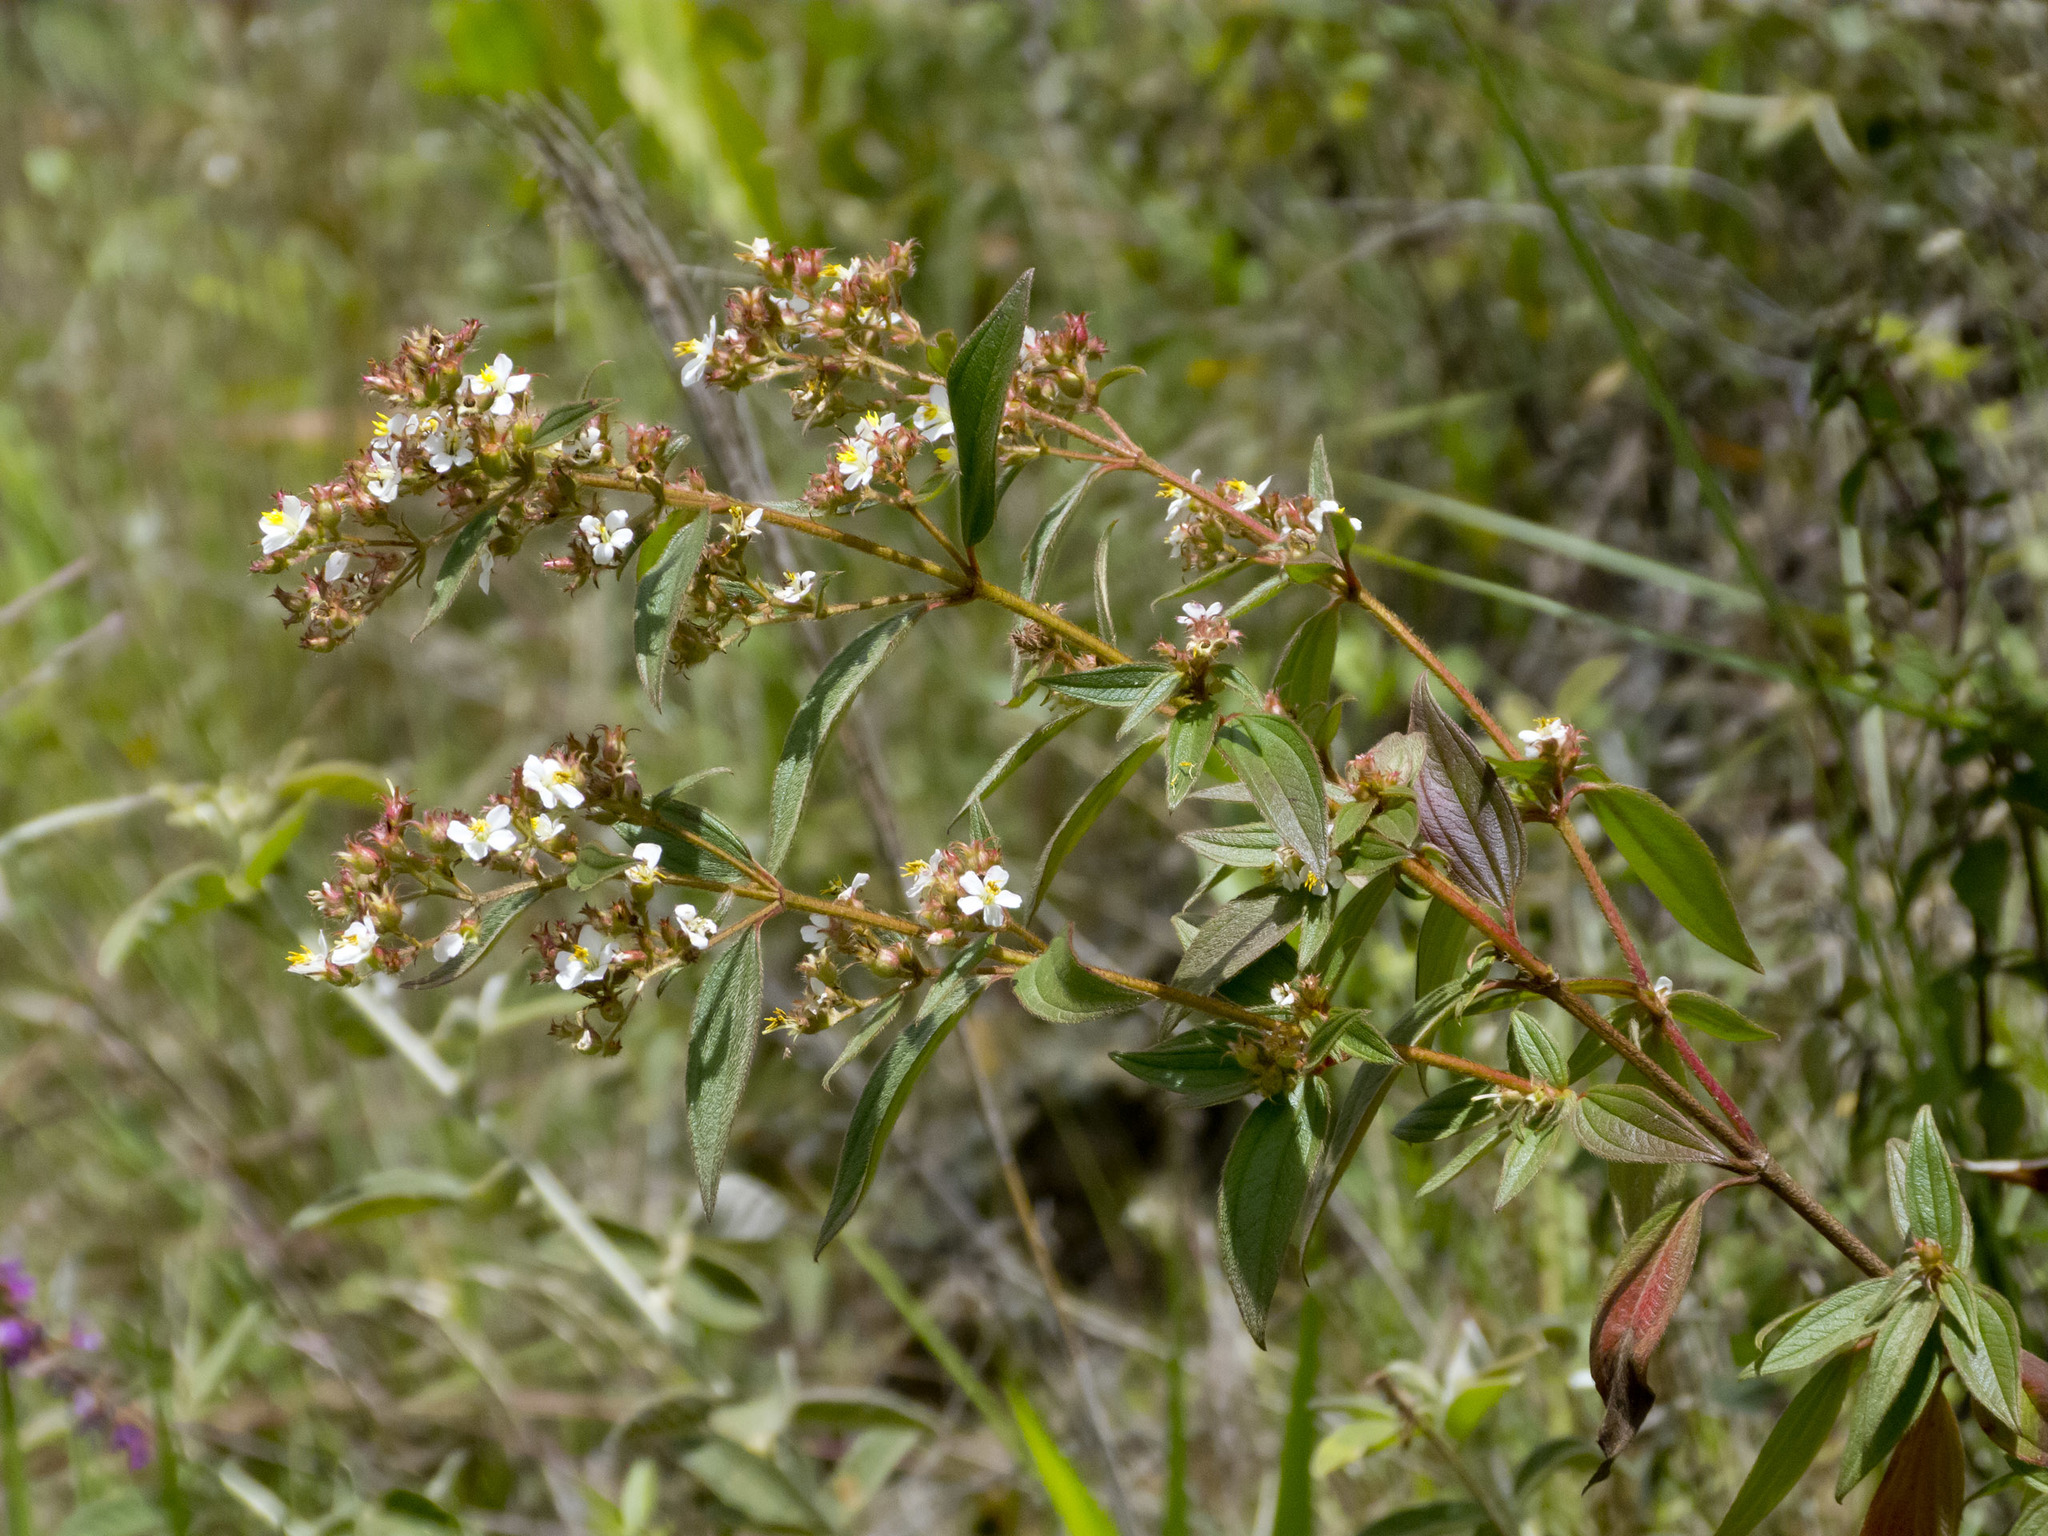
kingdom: Plantae
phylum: Tracheophyta
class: Magnoliopsida
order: Myrtales
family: Melastomataceae
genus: Chaetogastra
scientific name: Chaetogastra longifolia
